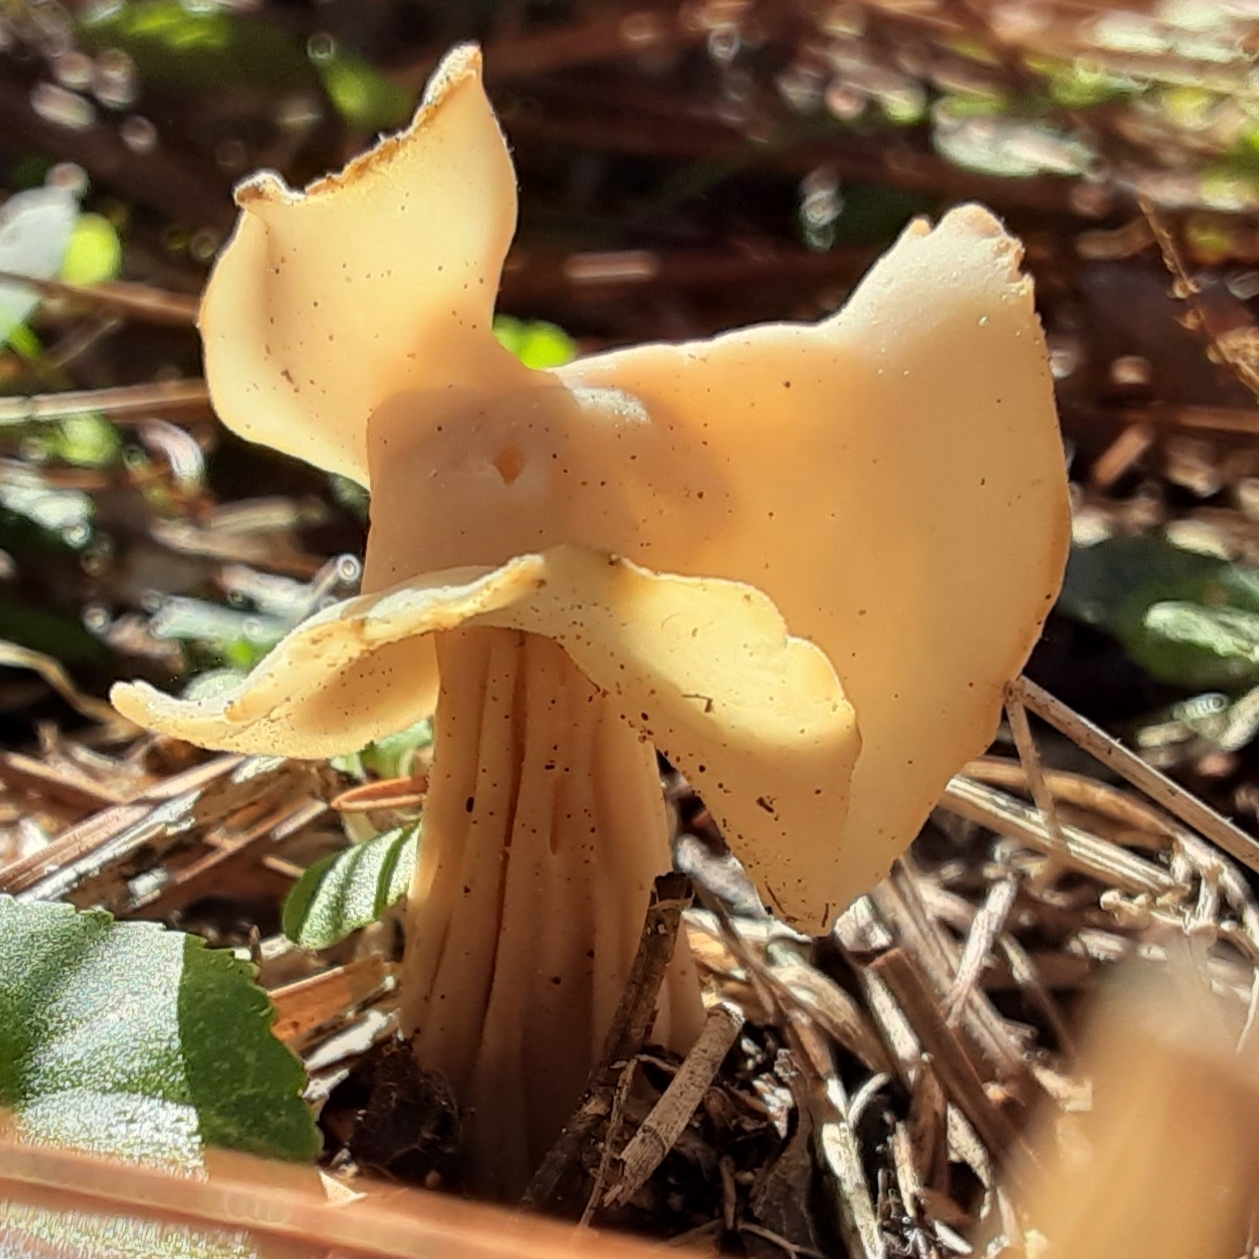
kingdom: Fungi
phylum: Ascomycota
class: Pezizomycetes
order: Pezizales
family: Helvellaceae
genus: Helvella
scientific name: Helvella crispa
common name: White saddle
